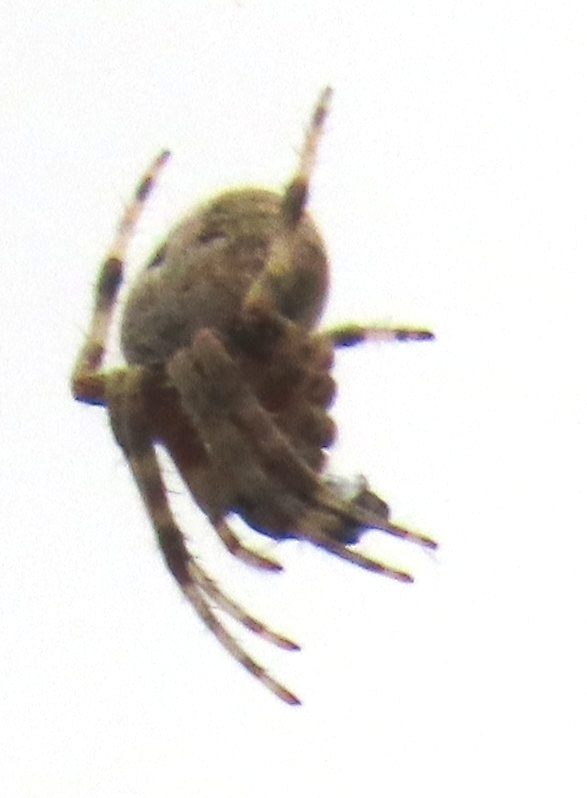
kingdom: Animalia
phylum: Arthropoda
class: Arachnida
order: Araneae
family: Araneidae
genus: Neoscona
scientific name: Neoscona crucifera
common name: Spotted orbweaver
